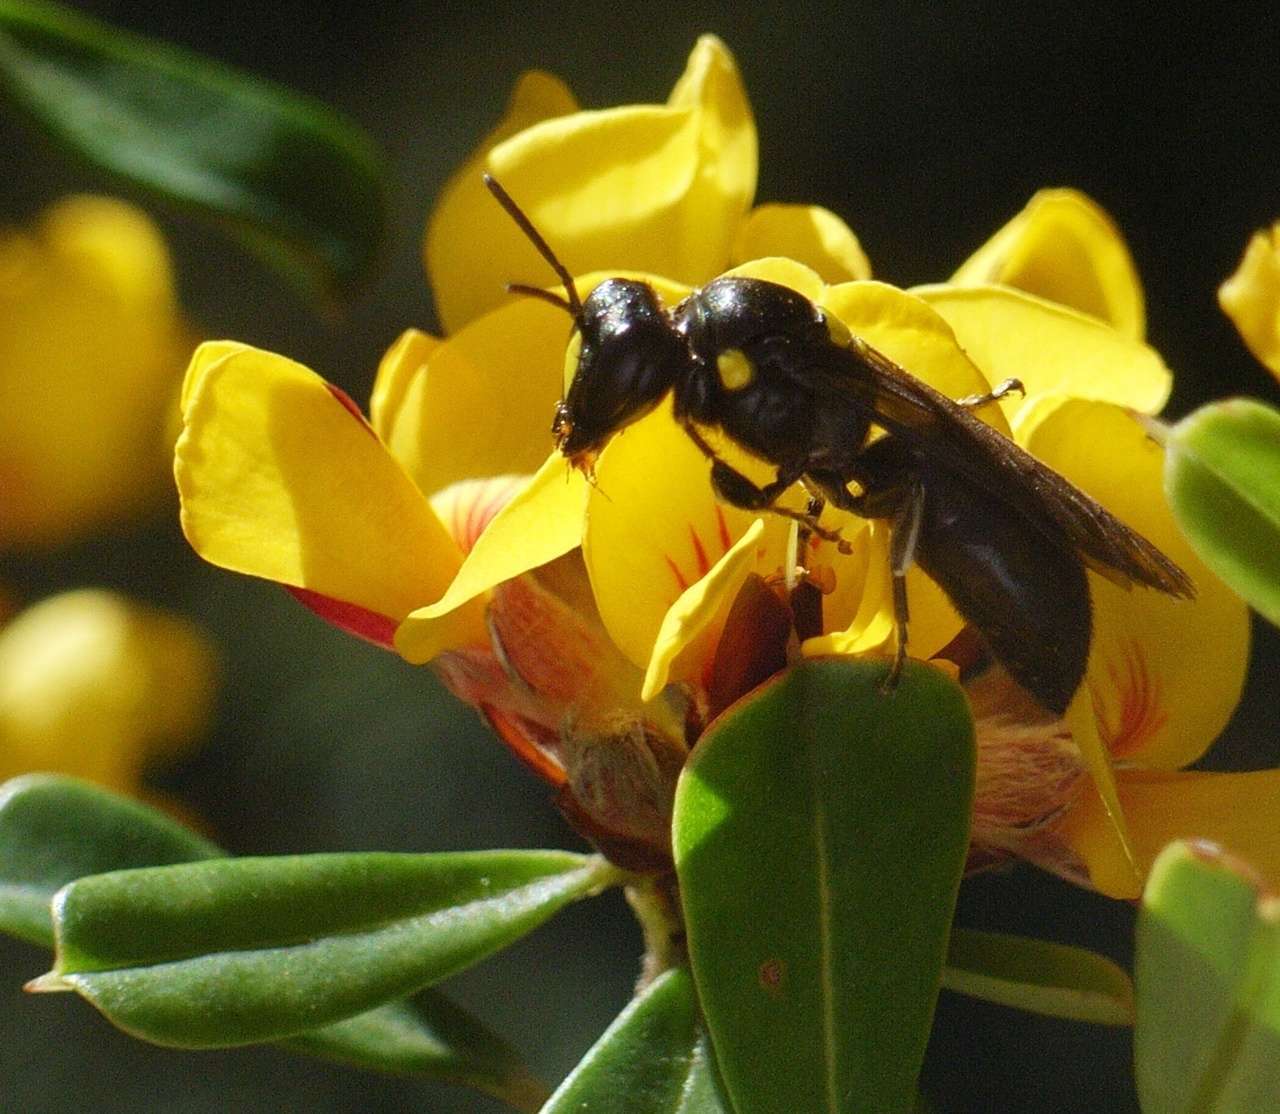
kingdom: Animalia
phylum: Arthropoda
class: Insecta
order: Hymenoptera
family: Colletidae
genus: Amphylaeus
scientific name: Amphylaeus morosus
